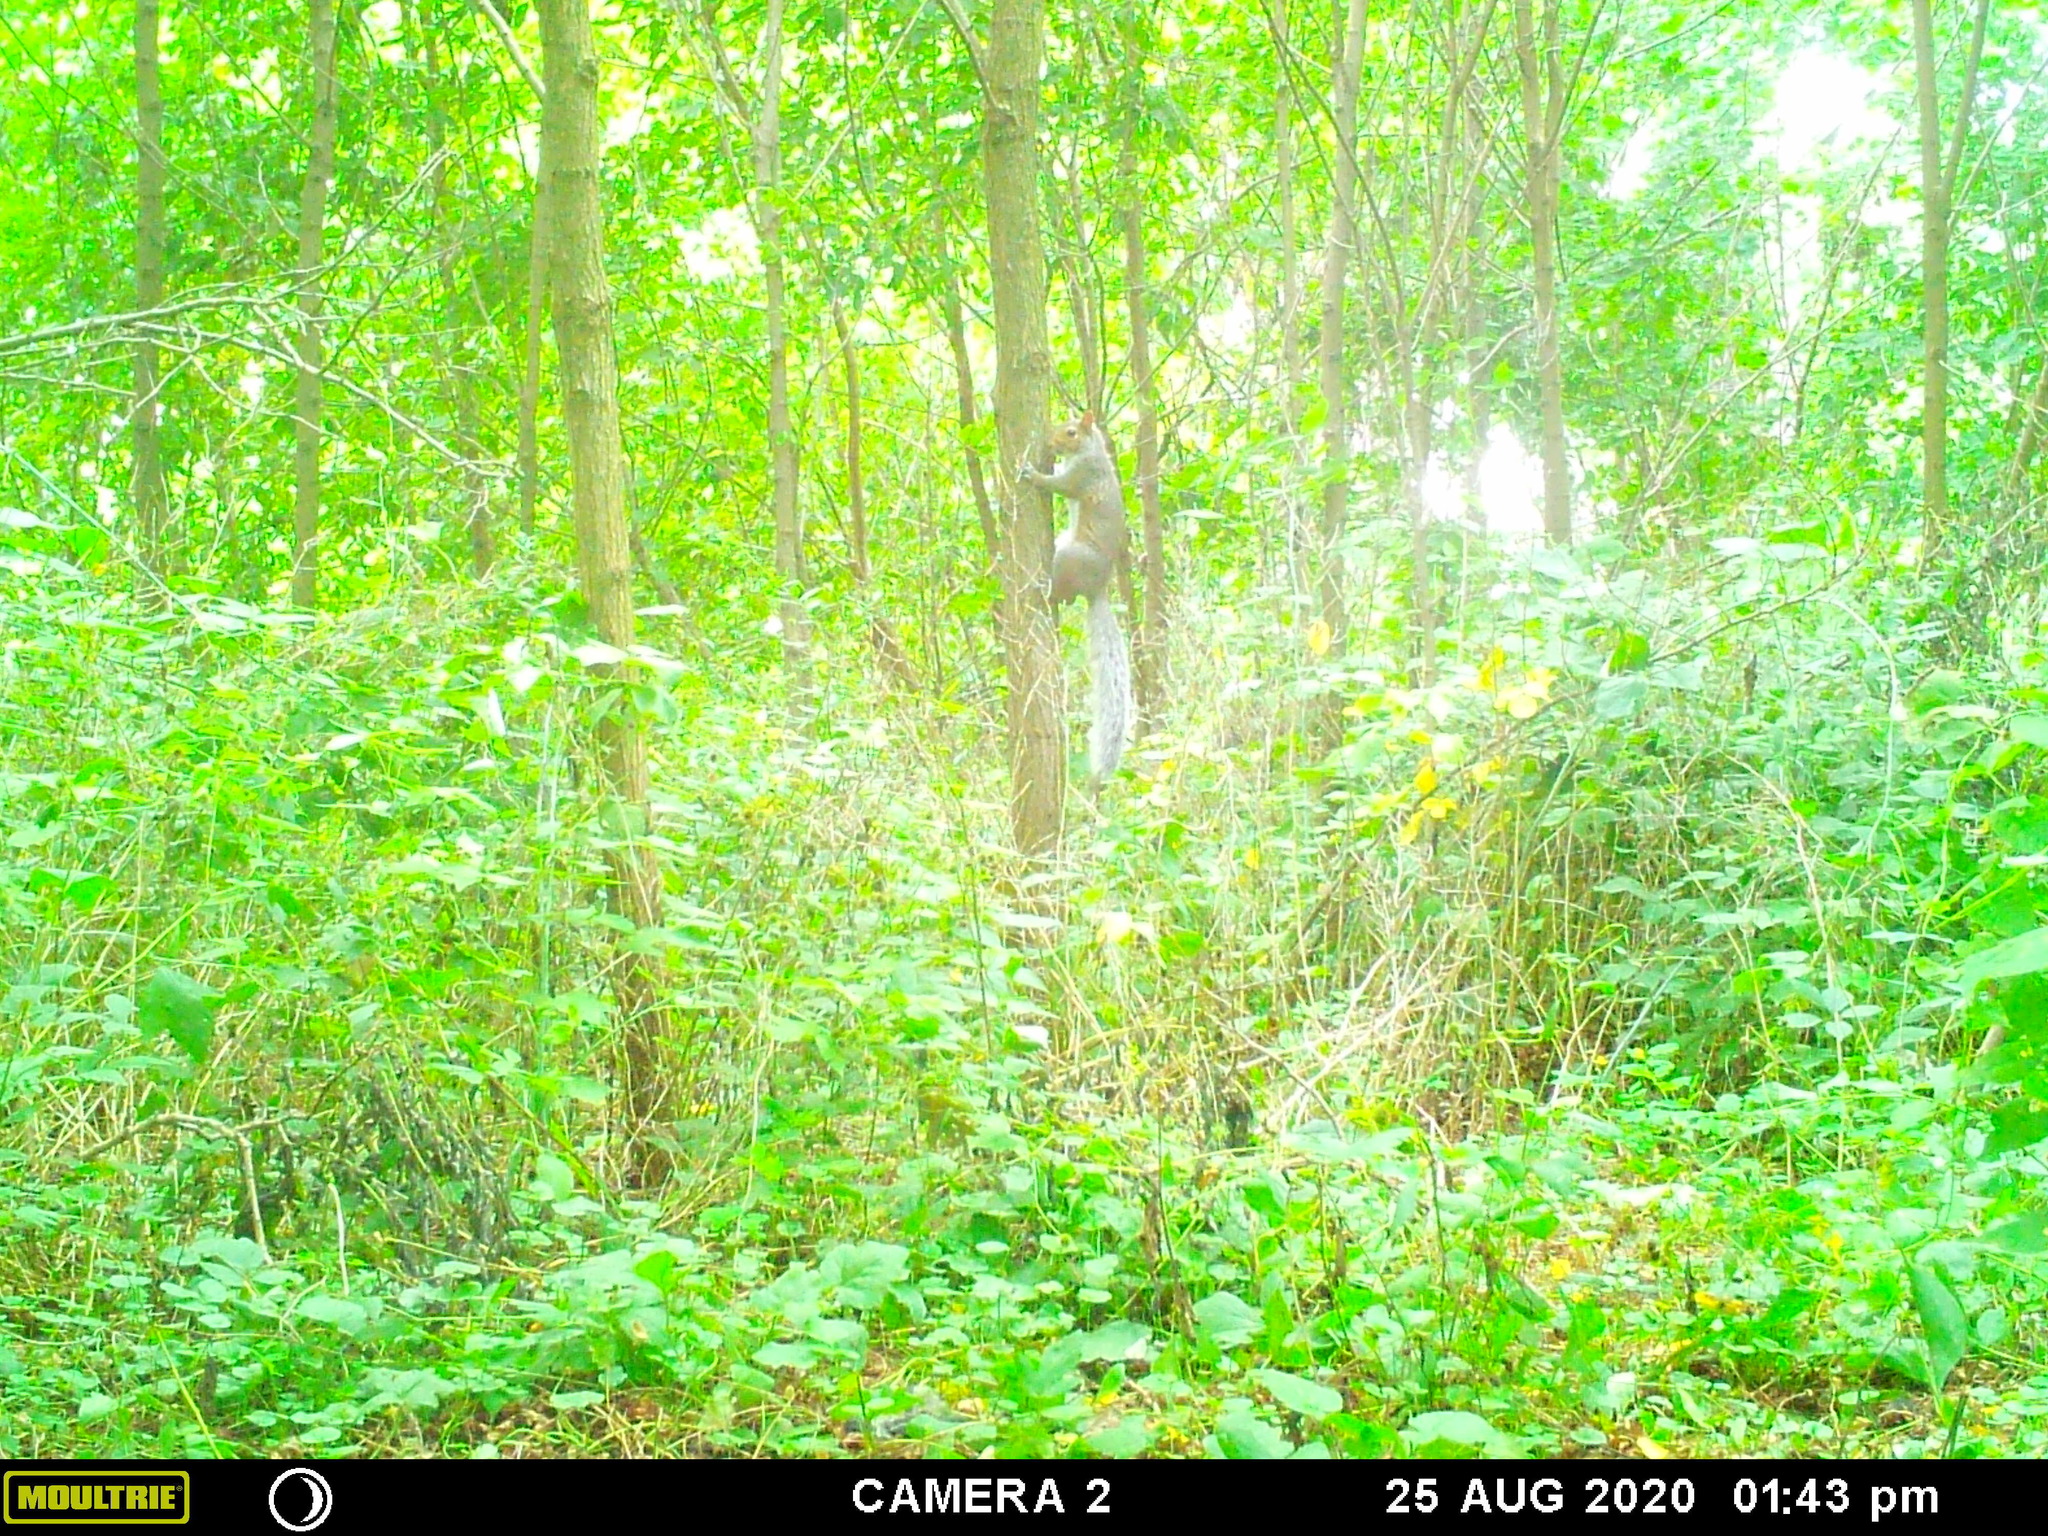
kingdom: Animalia
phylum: Chordata
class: Mammalia
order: Rodentia
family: Sciuridae
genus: Sciurus
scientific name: Sciurus carolinensis
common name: Eastern gray squirrel
